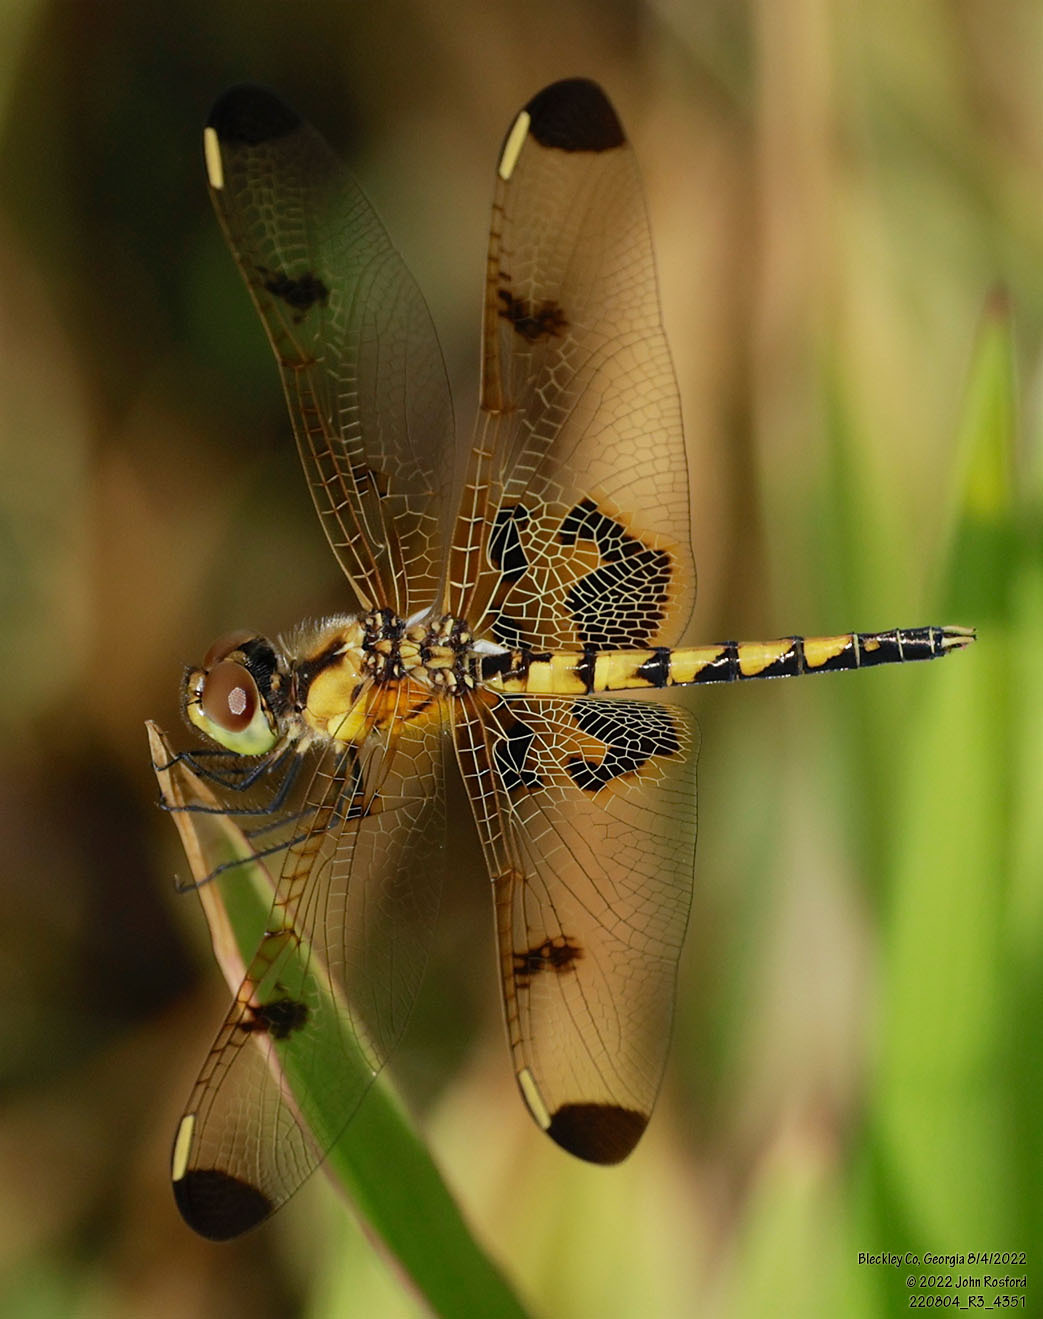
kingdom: Animalia
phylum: Arthropoda
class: Insecta
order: Odonata
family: Libellulidae
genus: Celithemis
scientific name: Celithemis elisa
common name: Calico pennant
